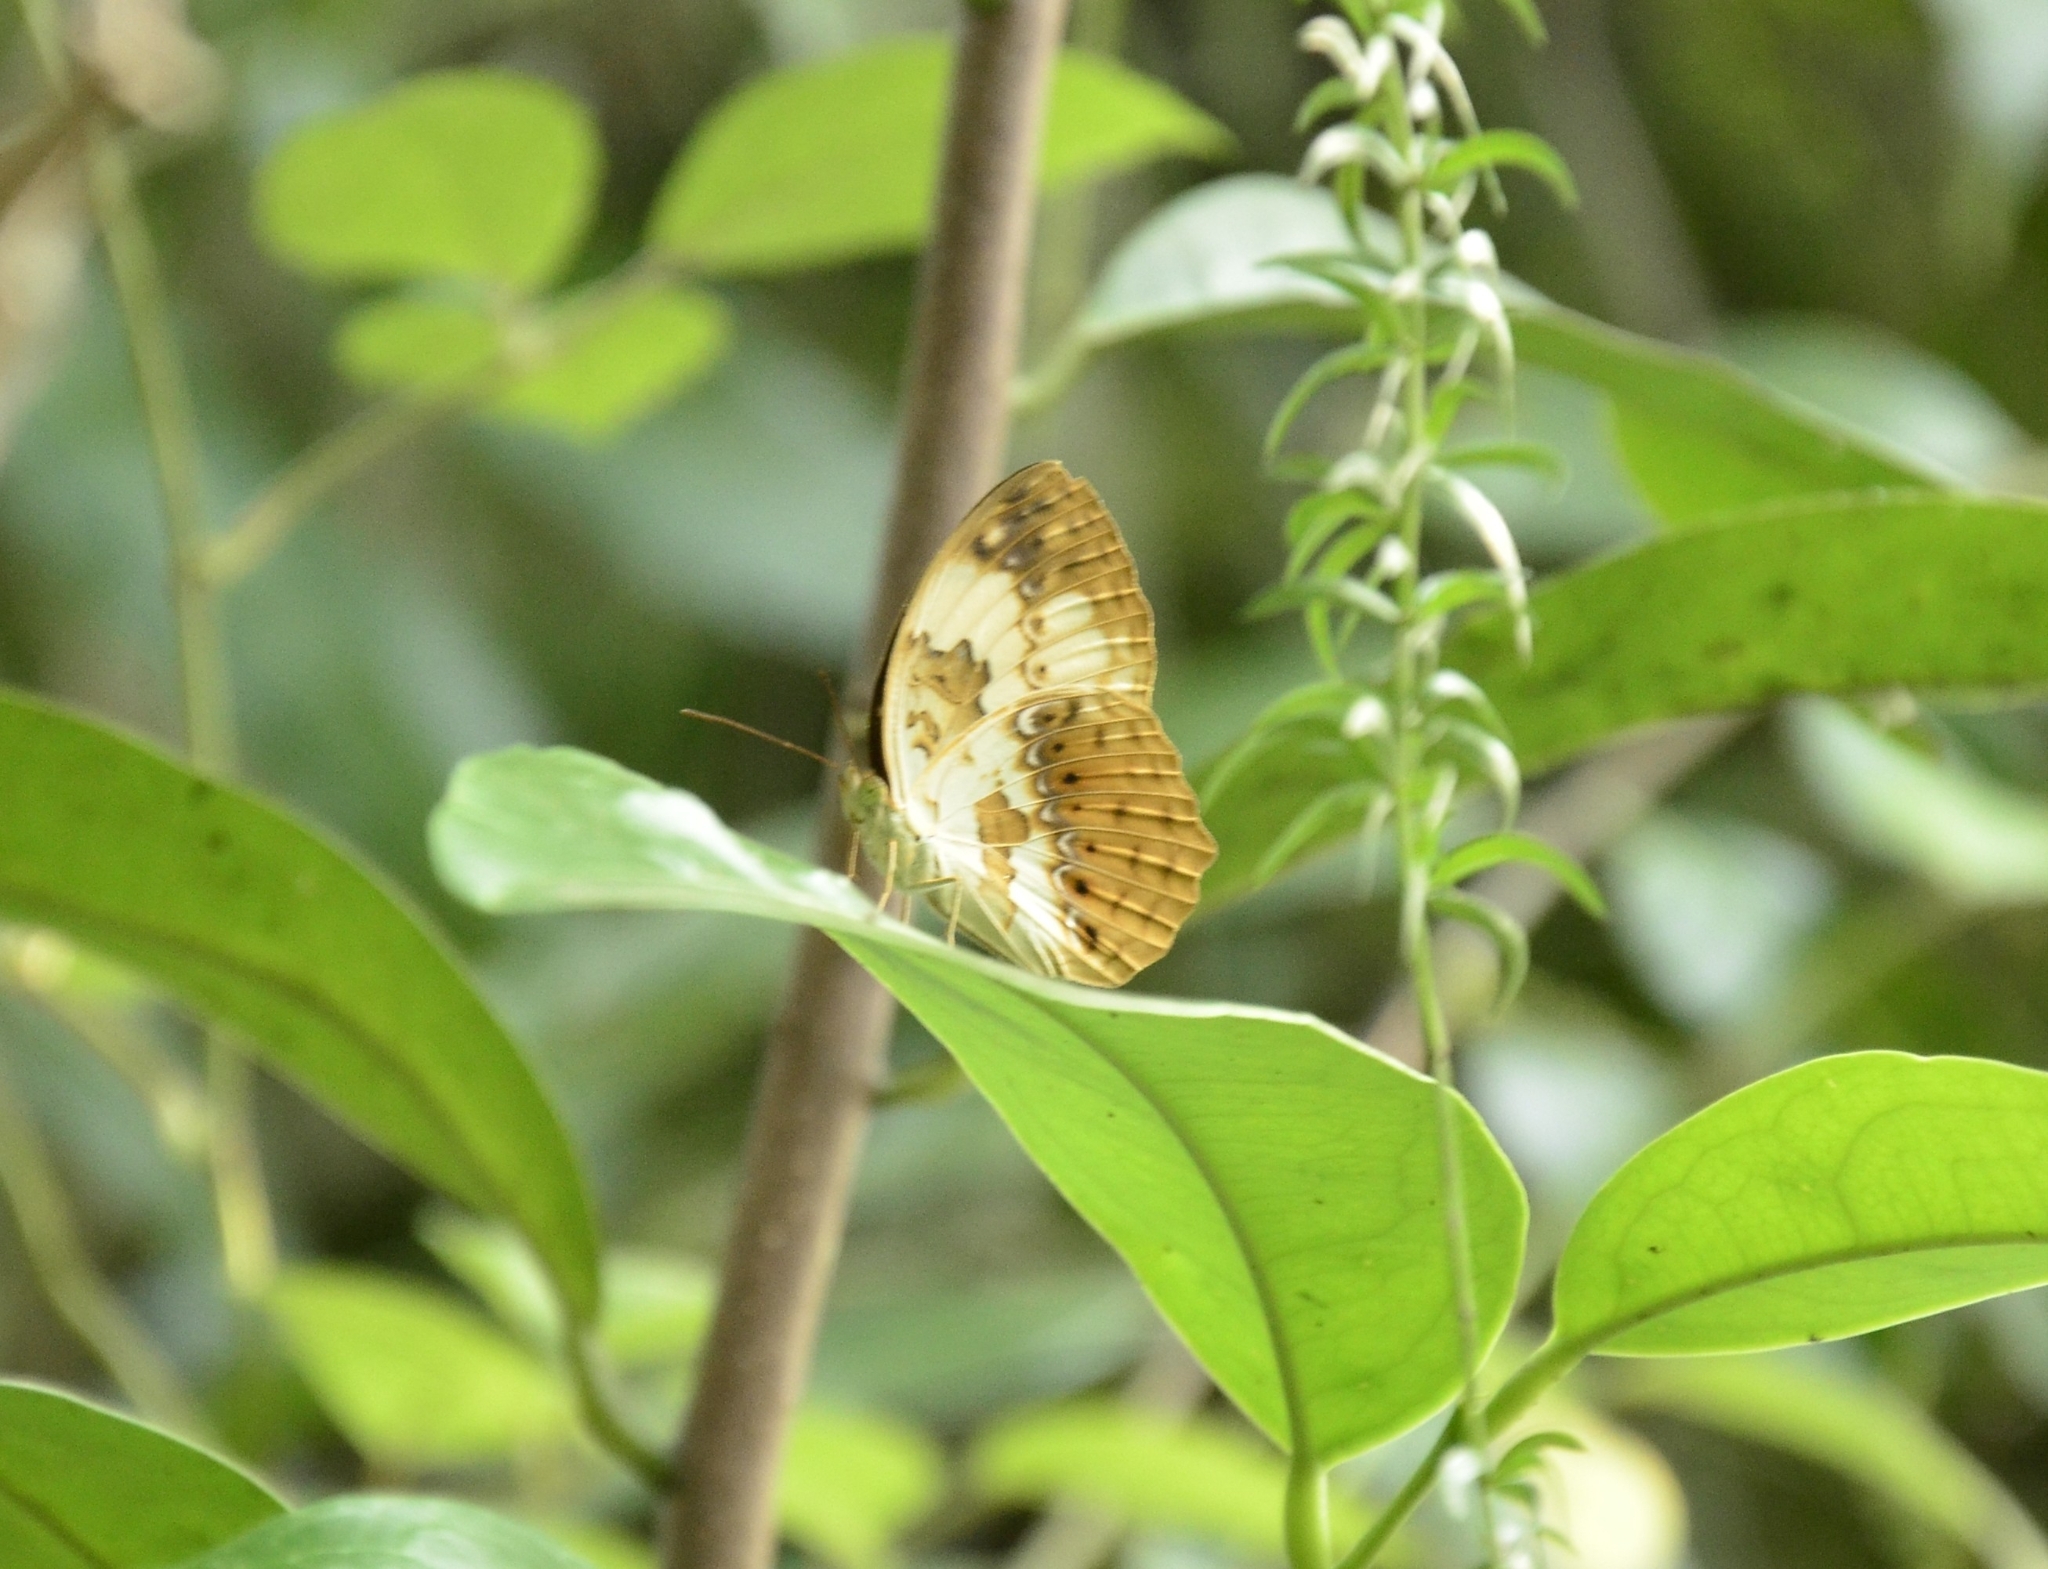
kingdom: Animalia
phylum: Arthropoda
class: Insecta
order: Lepidoptera
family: Nymphalidae
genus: Cupha
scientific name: Cupha erymanthis
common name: Rustic
